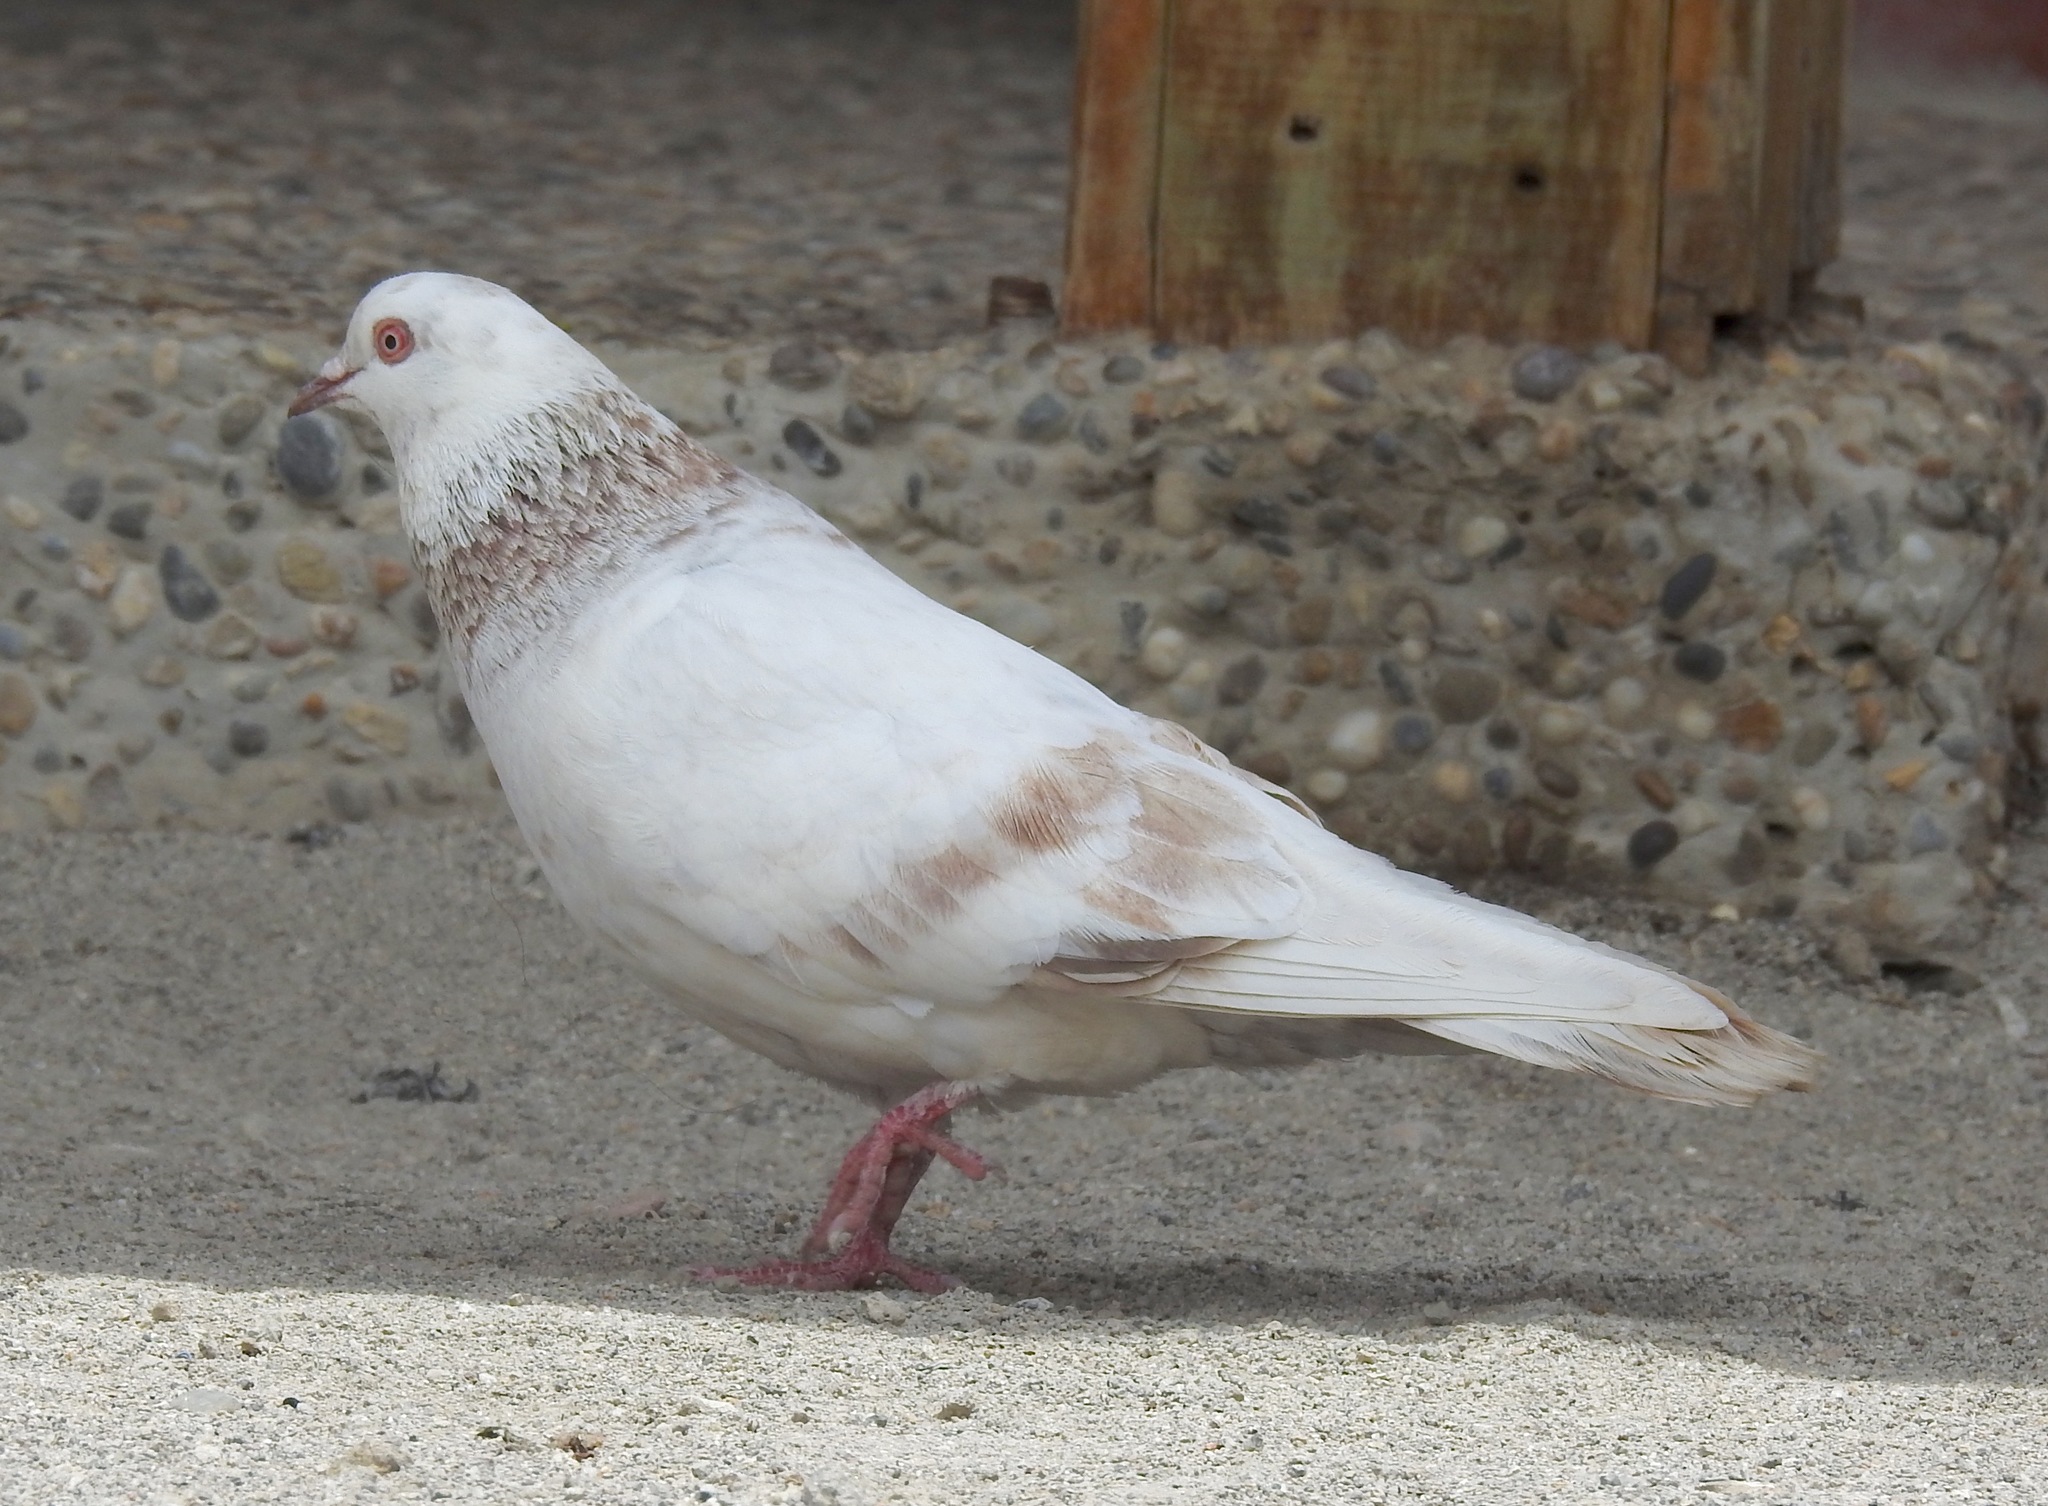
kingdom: Animalia
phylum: Chordata
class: Aves
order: Columbiformes
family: Columbidae
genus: Columba
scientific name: Columba livia
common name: Rock pigeon
